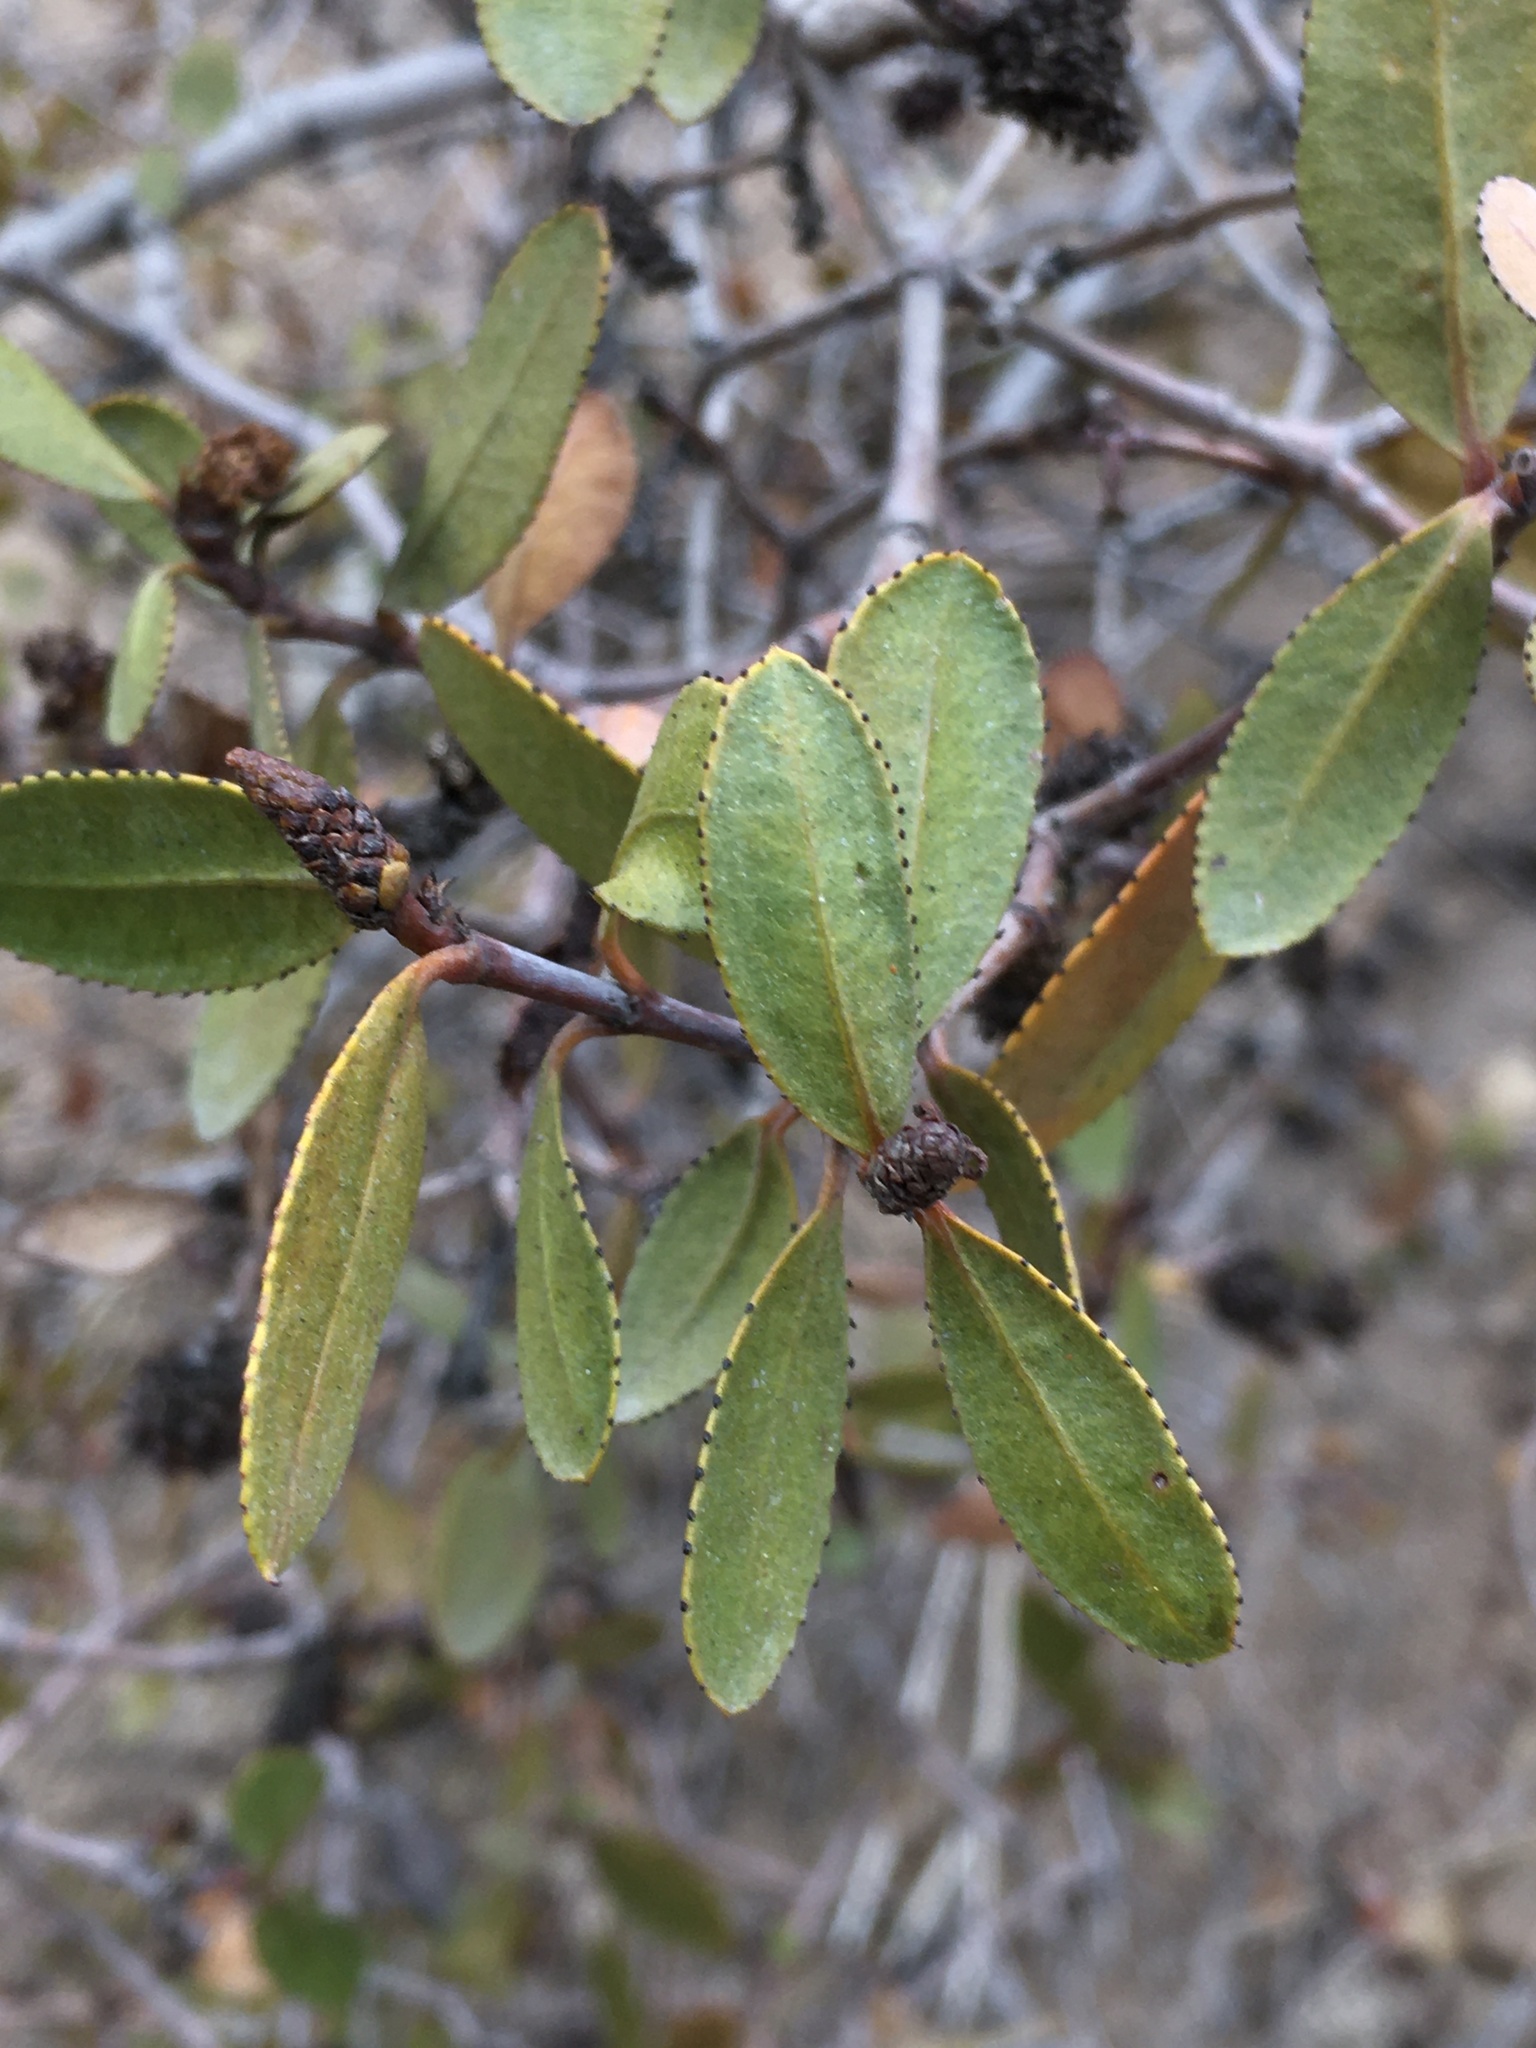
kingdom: Plantae
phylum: Tracheophyta
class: Magnoliopsida
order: Malpighiales
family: Euphorbiaceae
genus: Colliguaja
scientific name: Colliguaja odorifera
